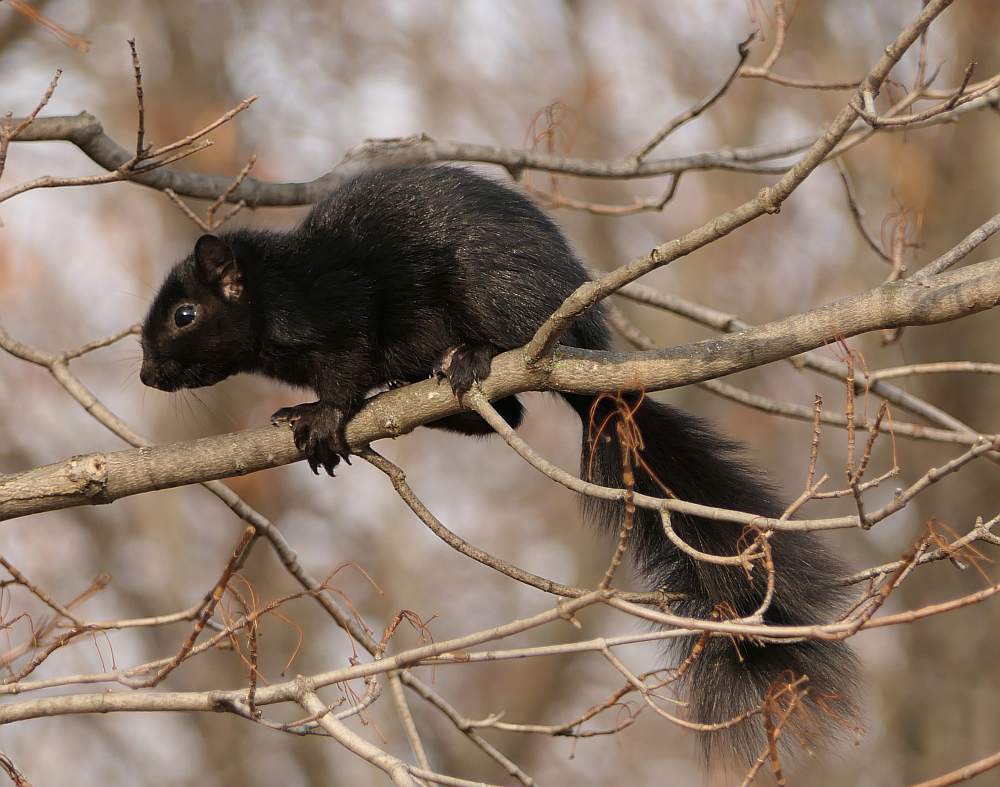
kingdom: Animalia
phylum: Chordata
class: Mammalia
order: Rodentia
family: Sciuridae
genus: Sciurus
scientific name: Sciurus carolinensis
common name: Eastern gray squirrel
